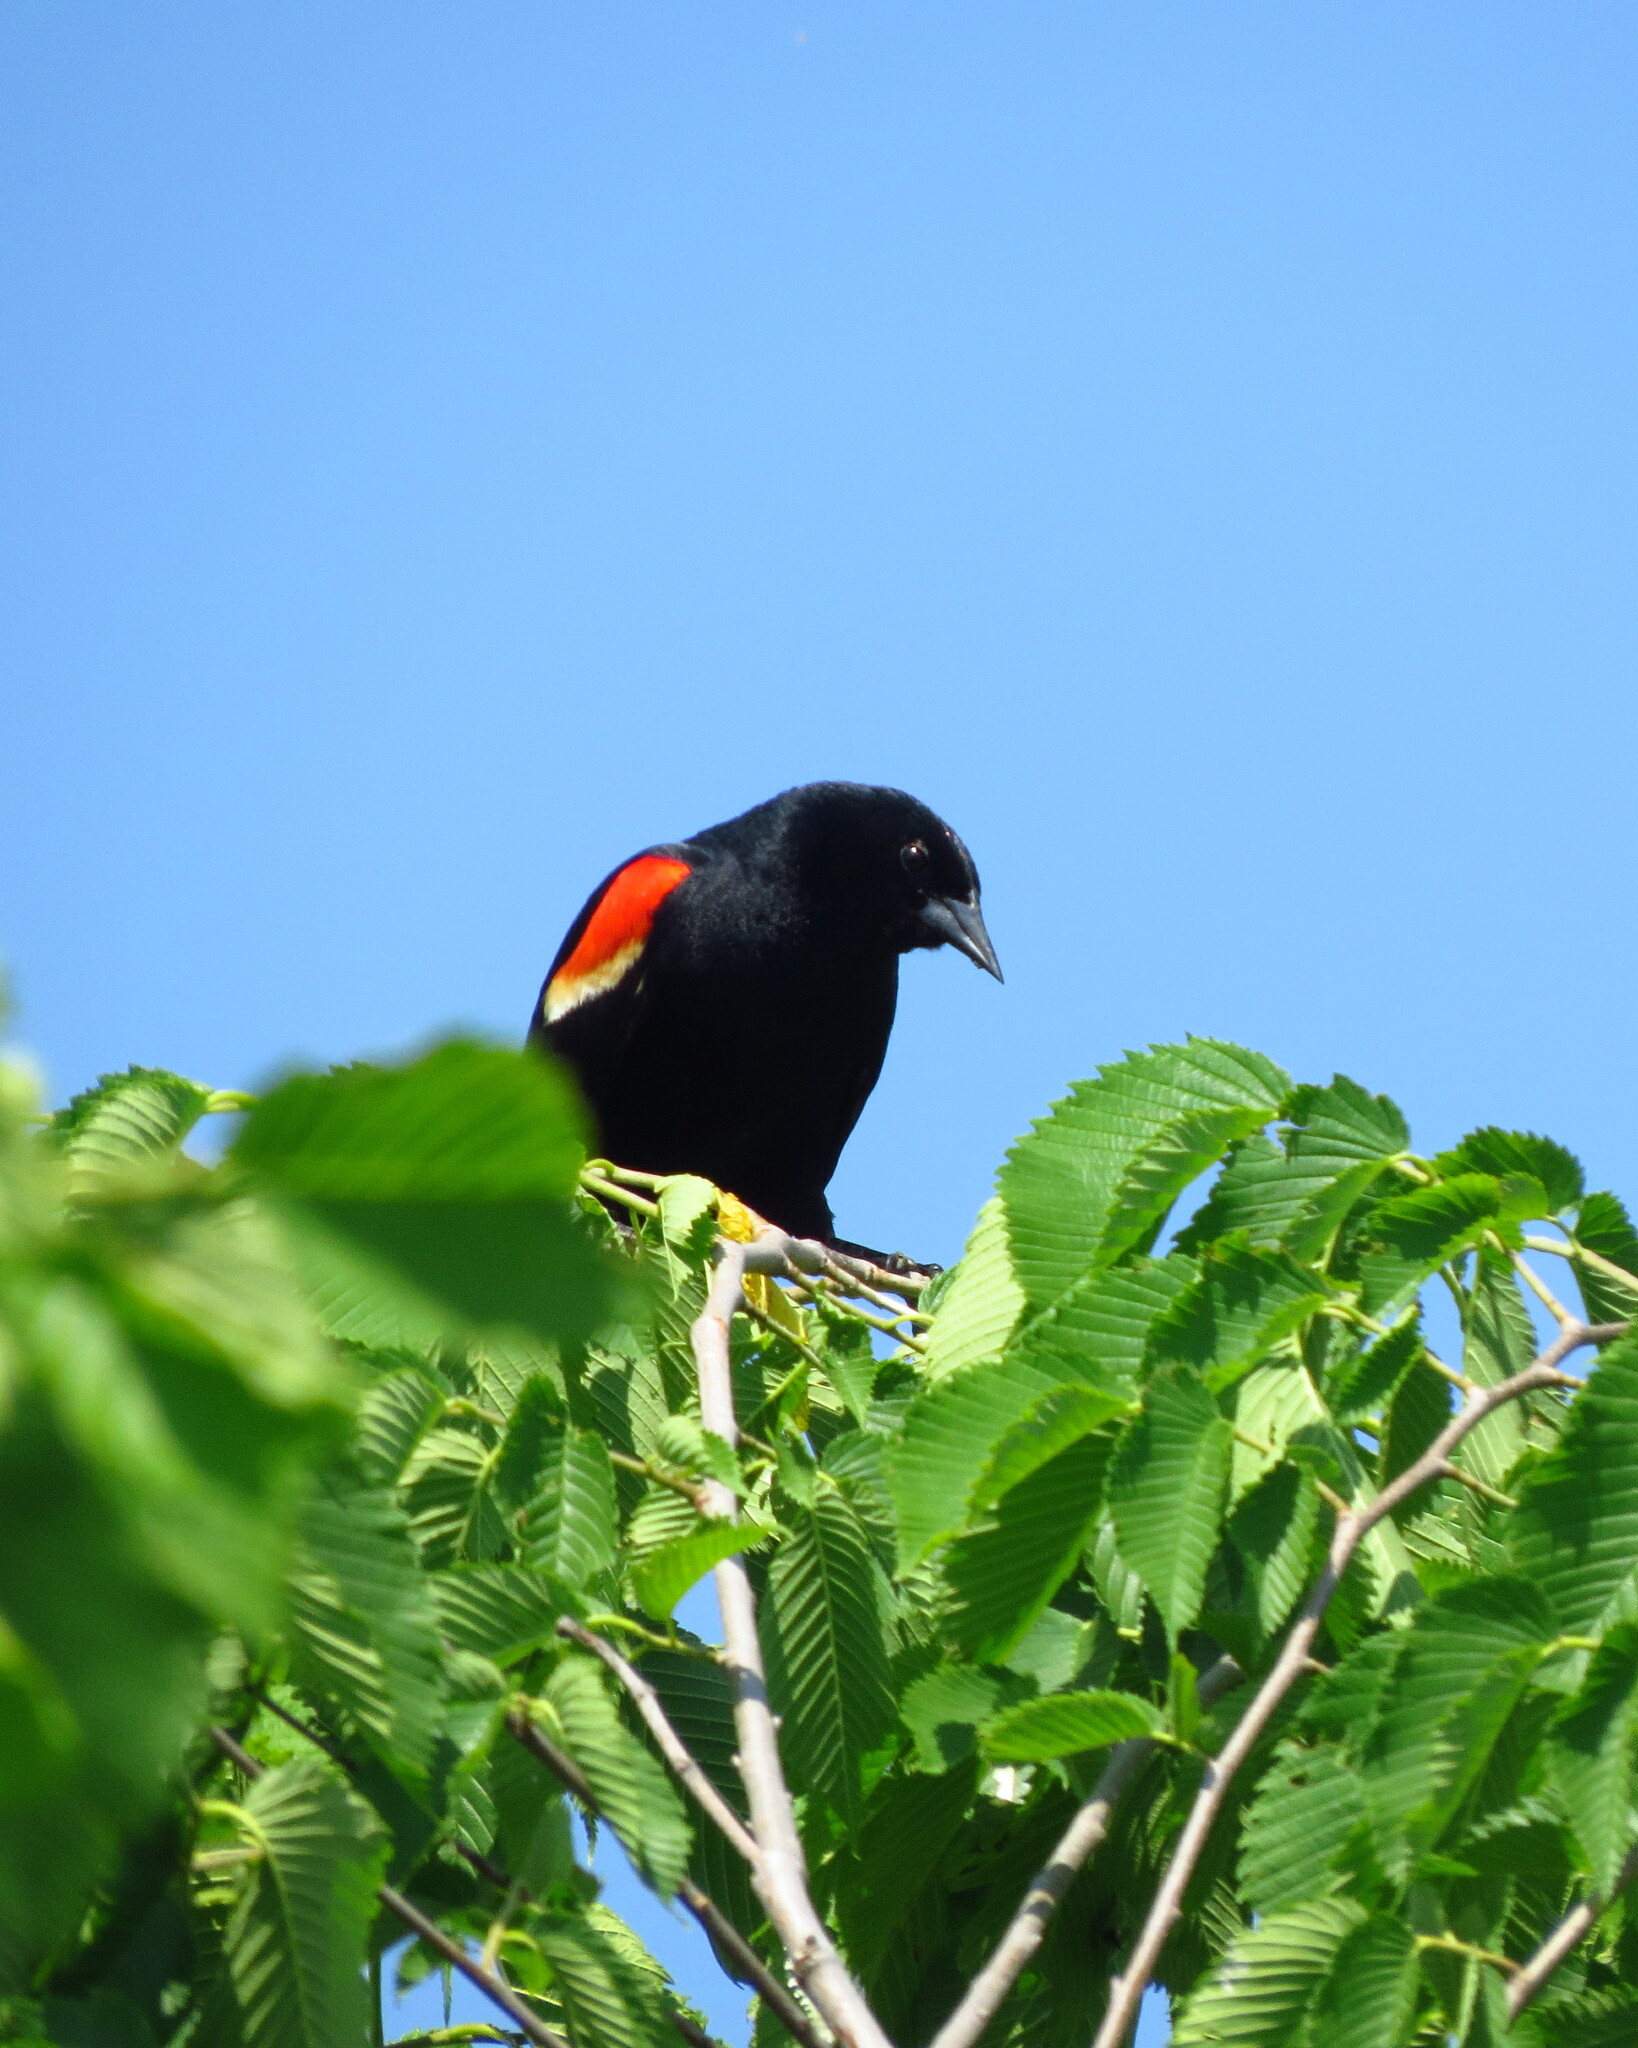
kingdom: Animalia
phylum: Chordata
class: Aves
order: Passeriformes
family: Icteridae
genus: Agelaius
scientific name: Agelaius phoeniceus
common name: Red-winged blackbird
